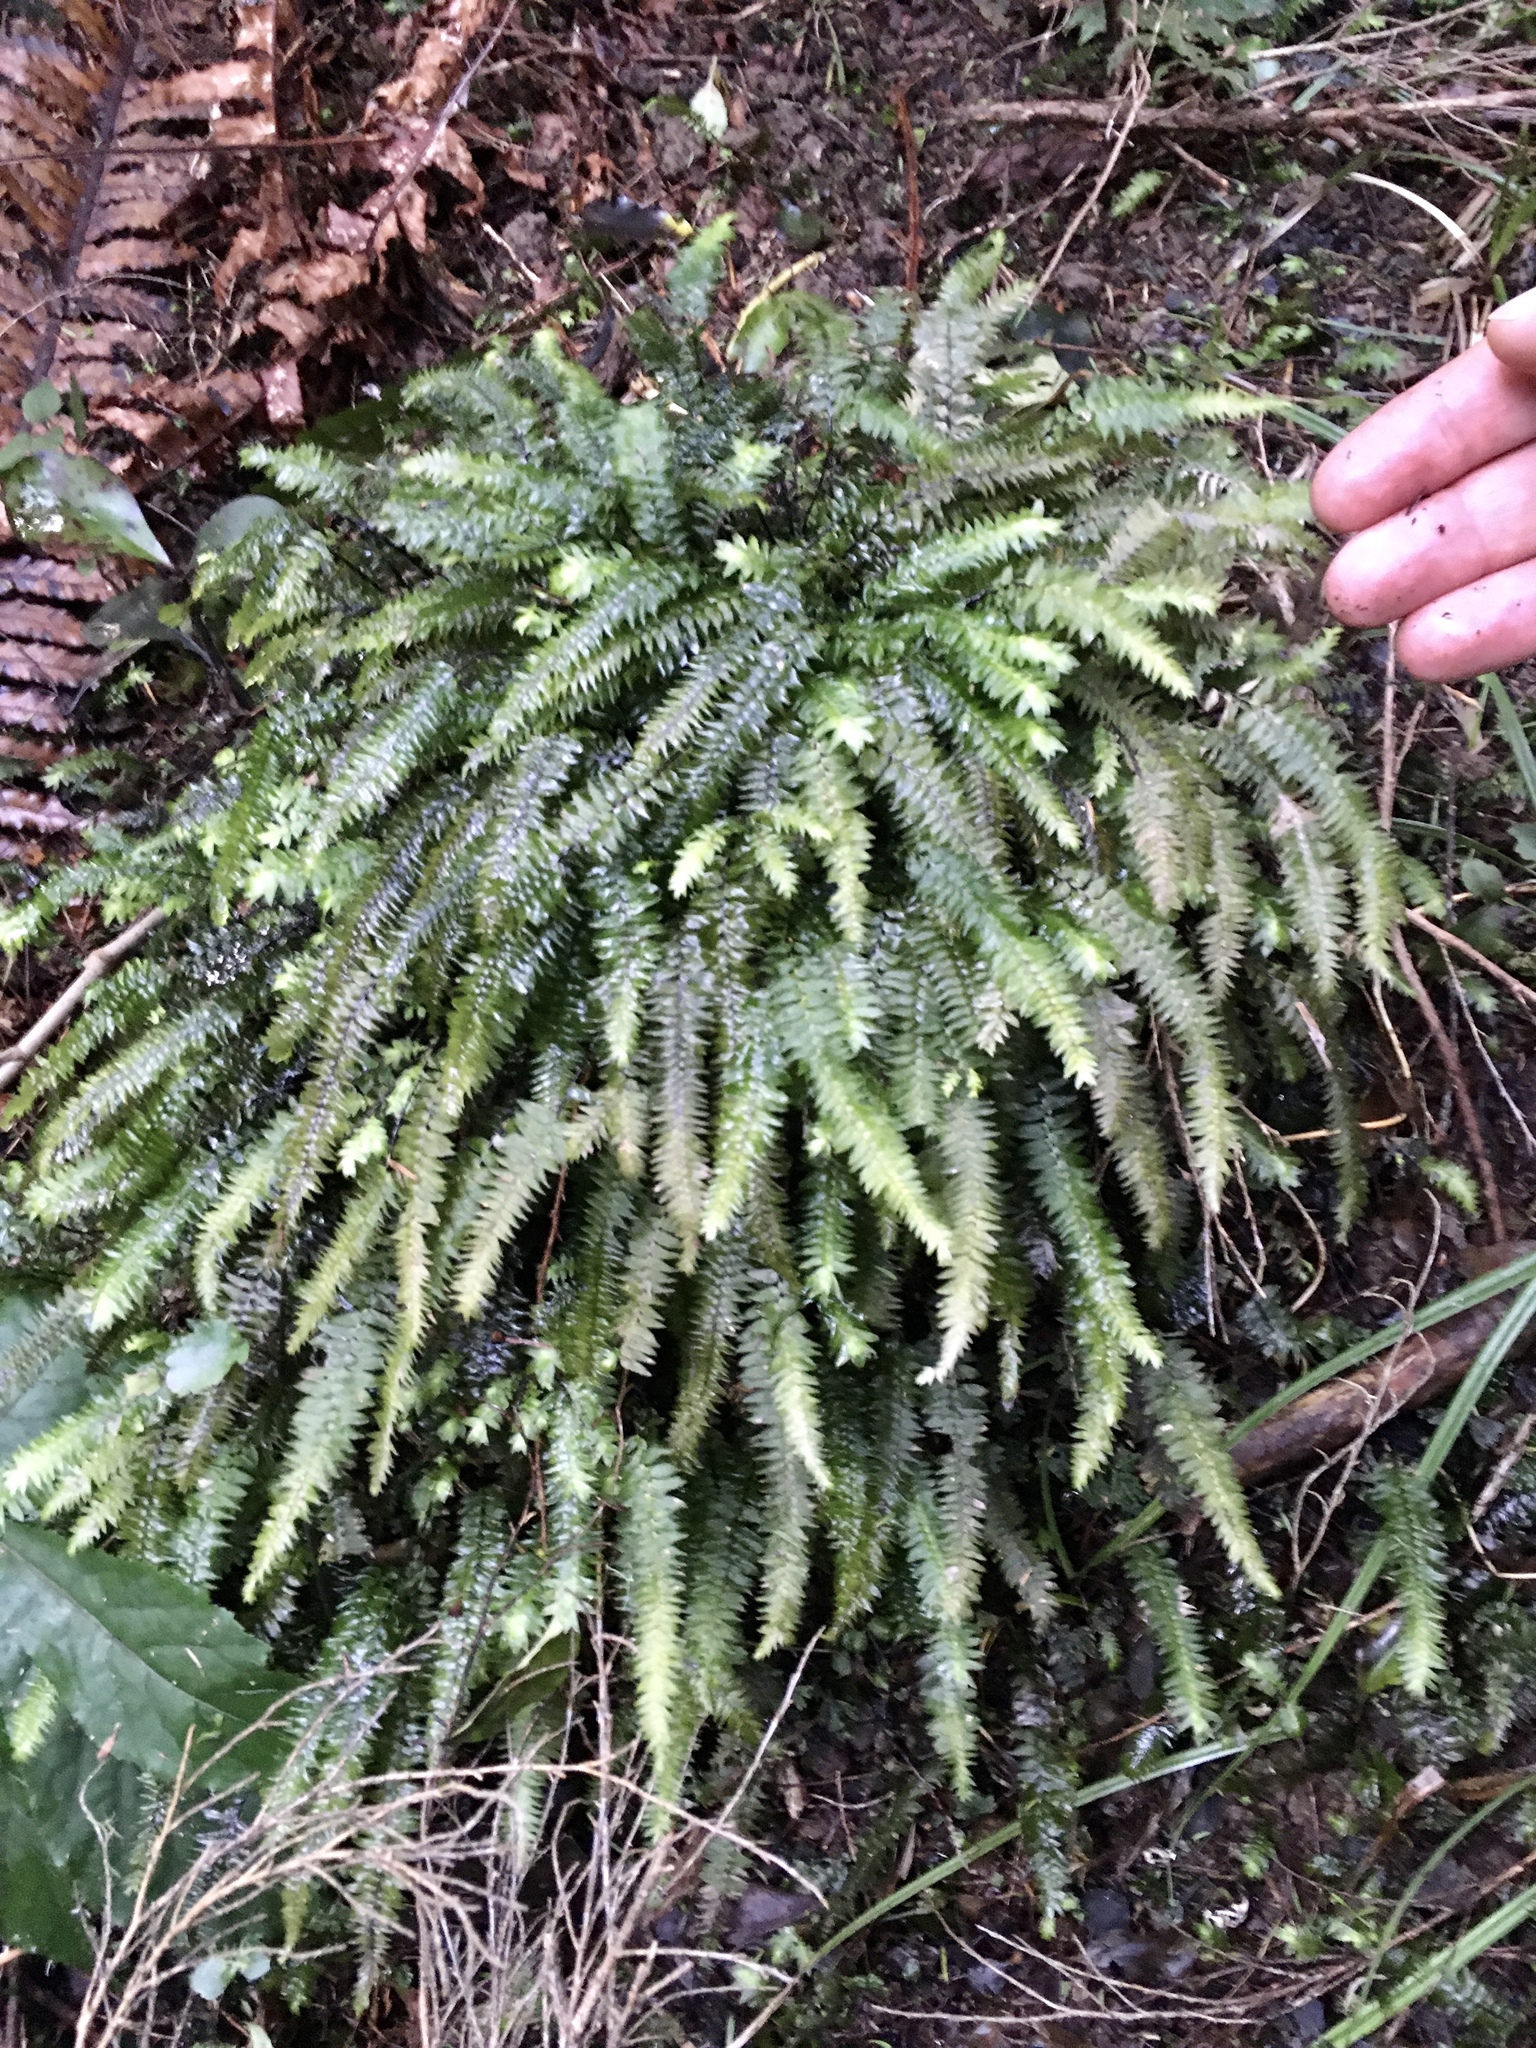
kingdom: Plantae
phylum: Bryophyta
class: Bryopsida
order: Hypopterygiales
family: Hypopterygiaceae
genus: Cyathophorum
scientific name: Cyathophorum bulbosum
